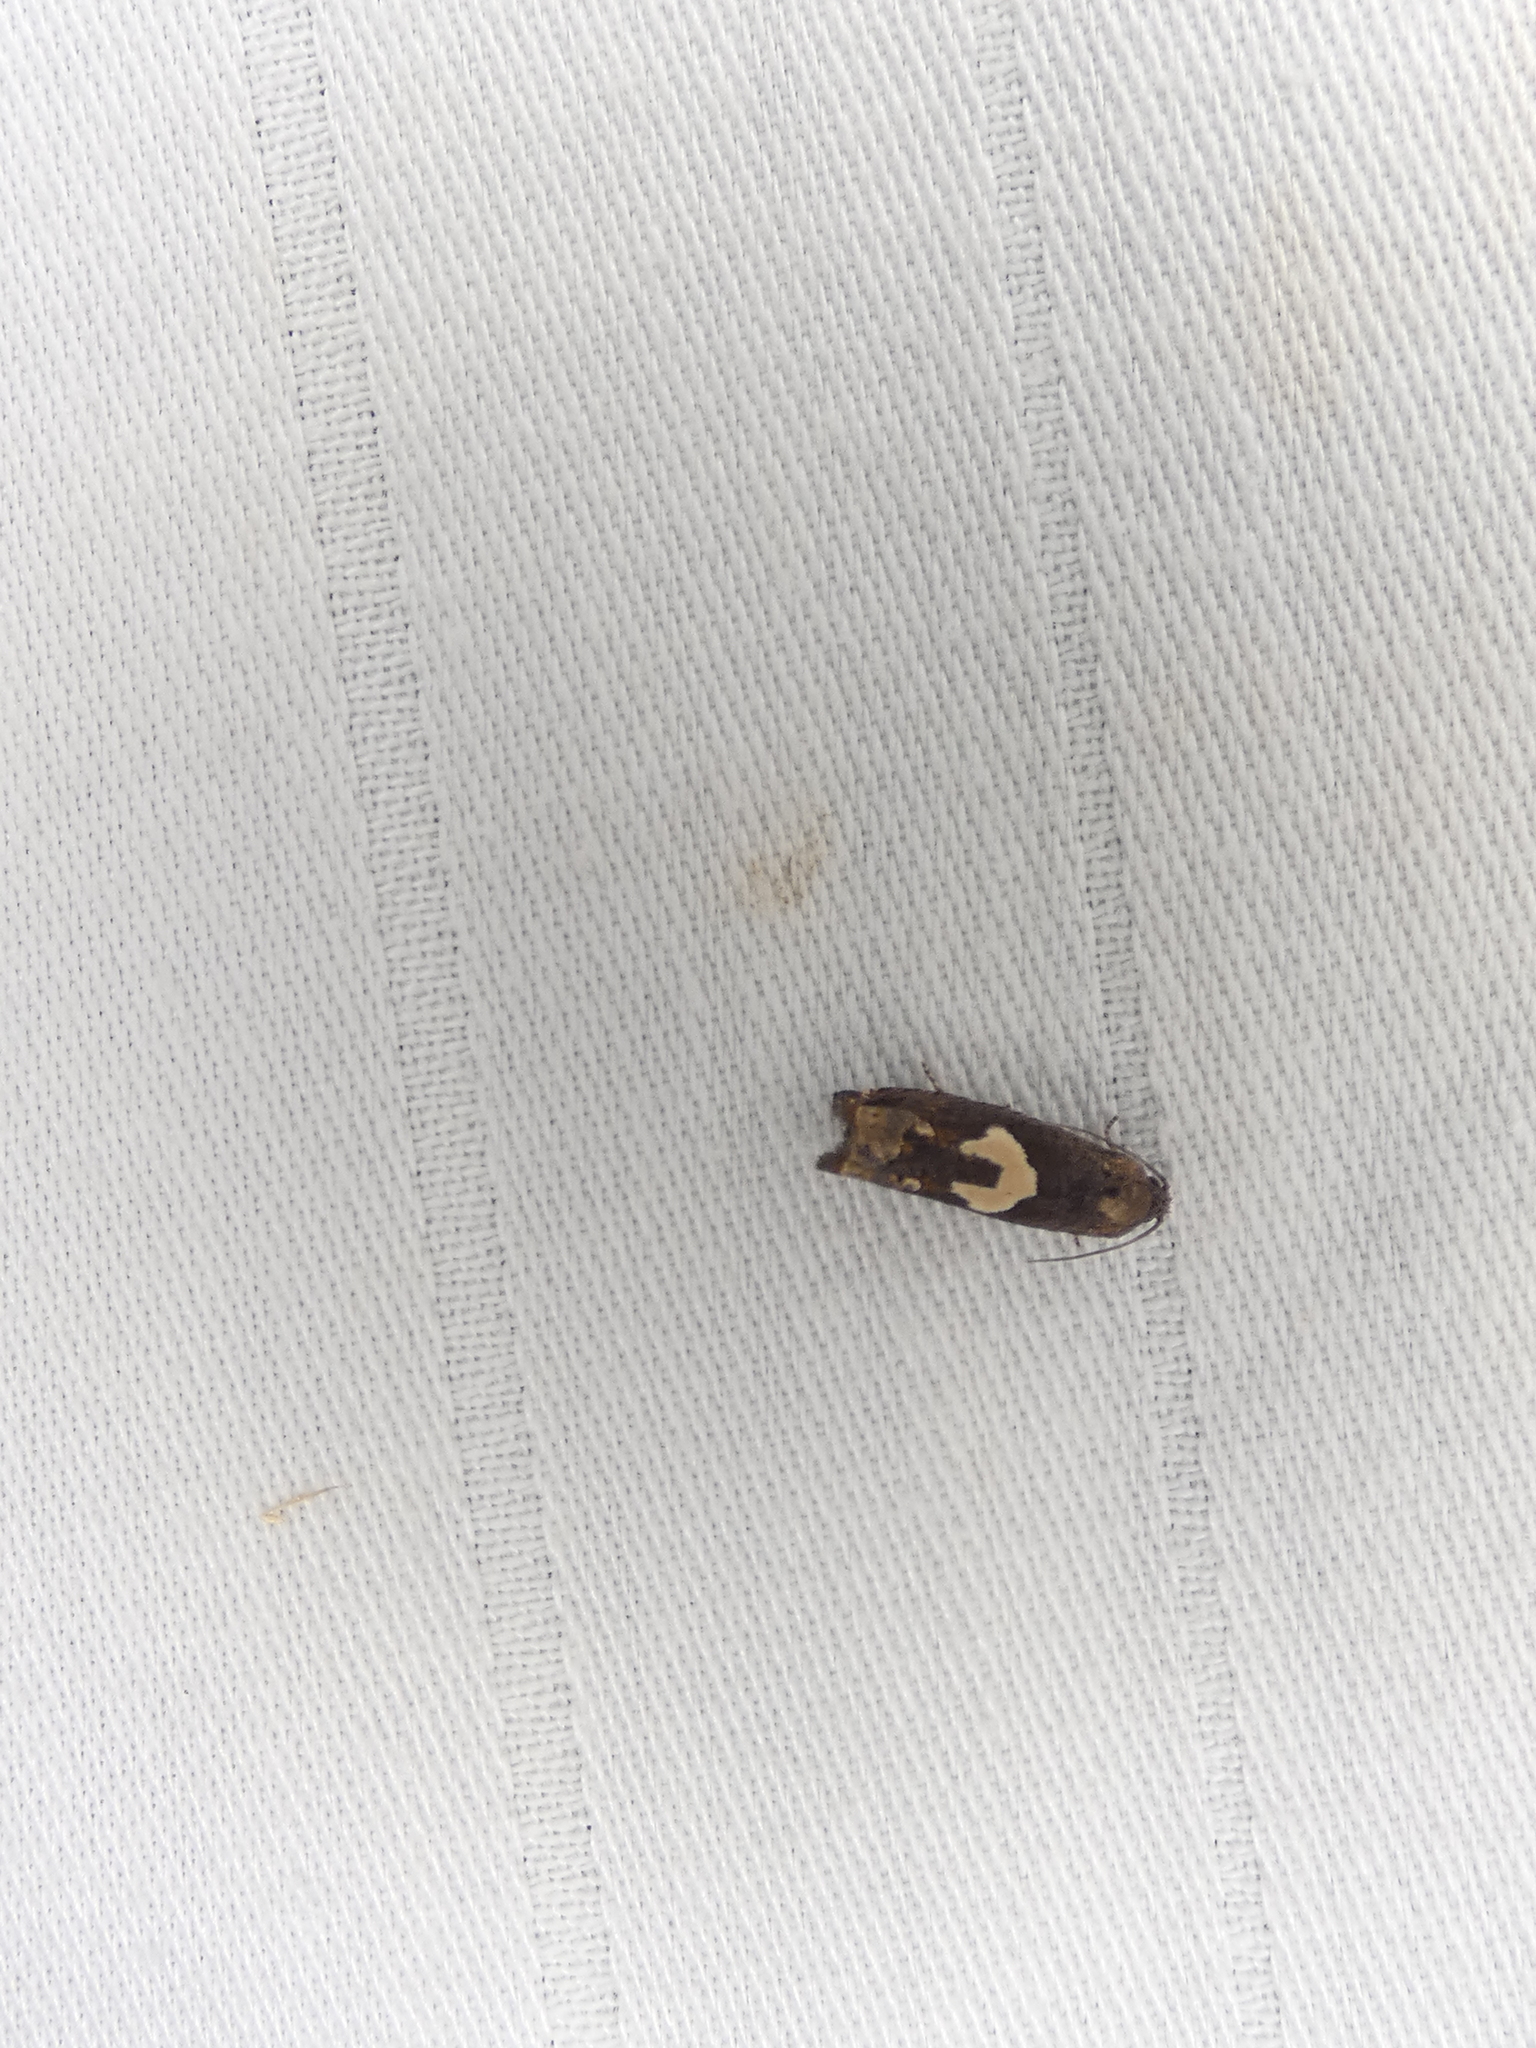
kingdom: Animalia
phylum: Arthropoda
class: Insecta
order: Lepidoptera
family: Tortricidae
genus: Epiblema
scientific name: Epiblema otiosana
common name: Bidens borer moth
